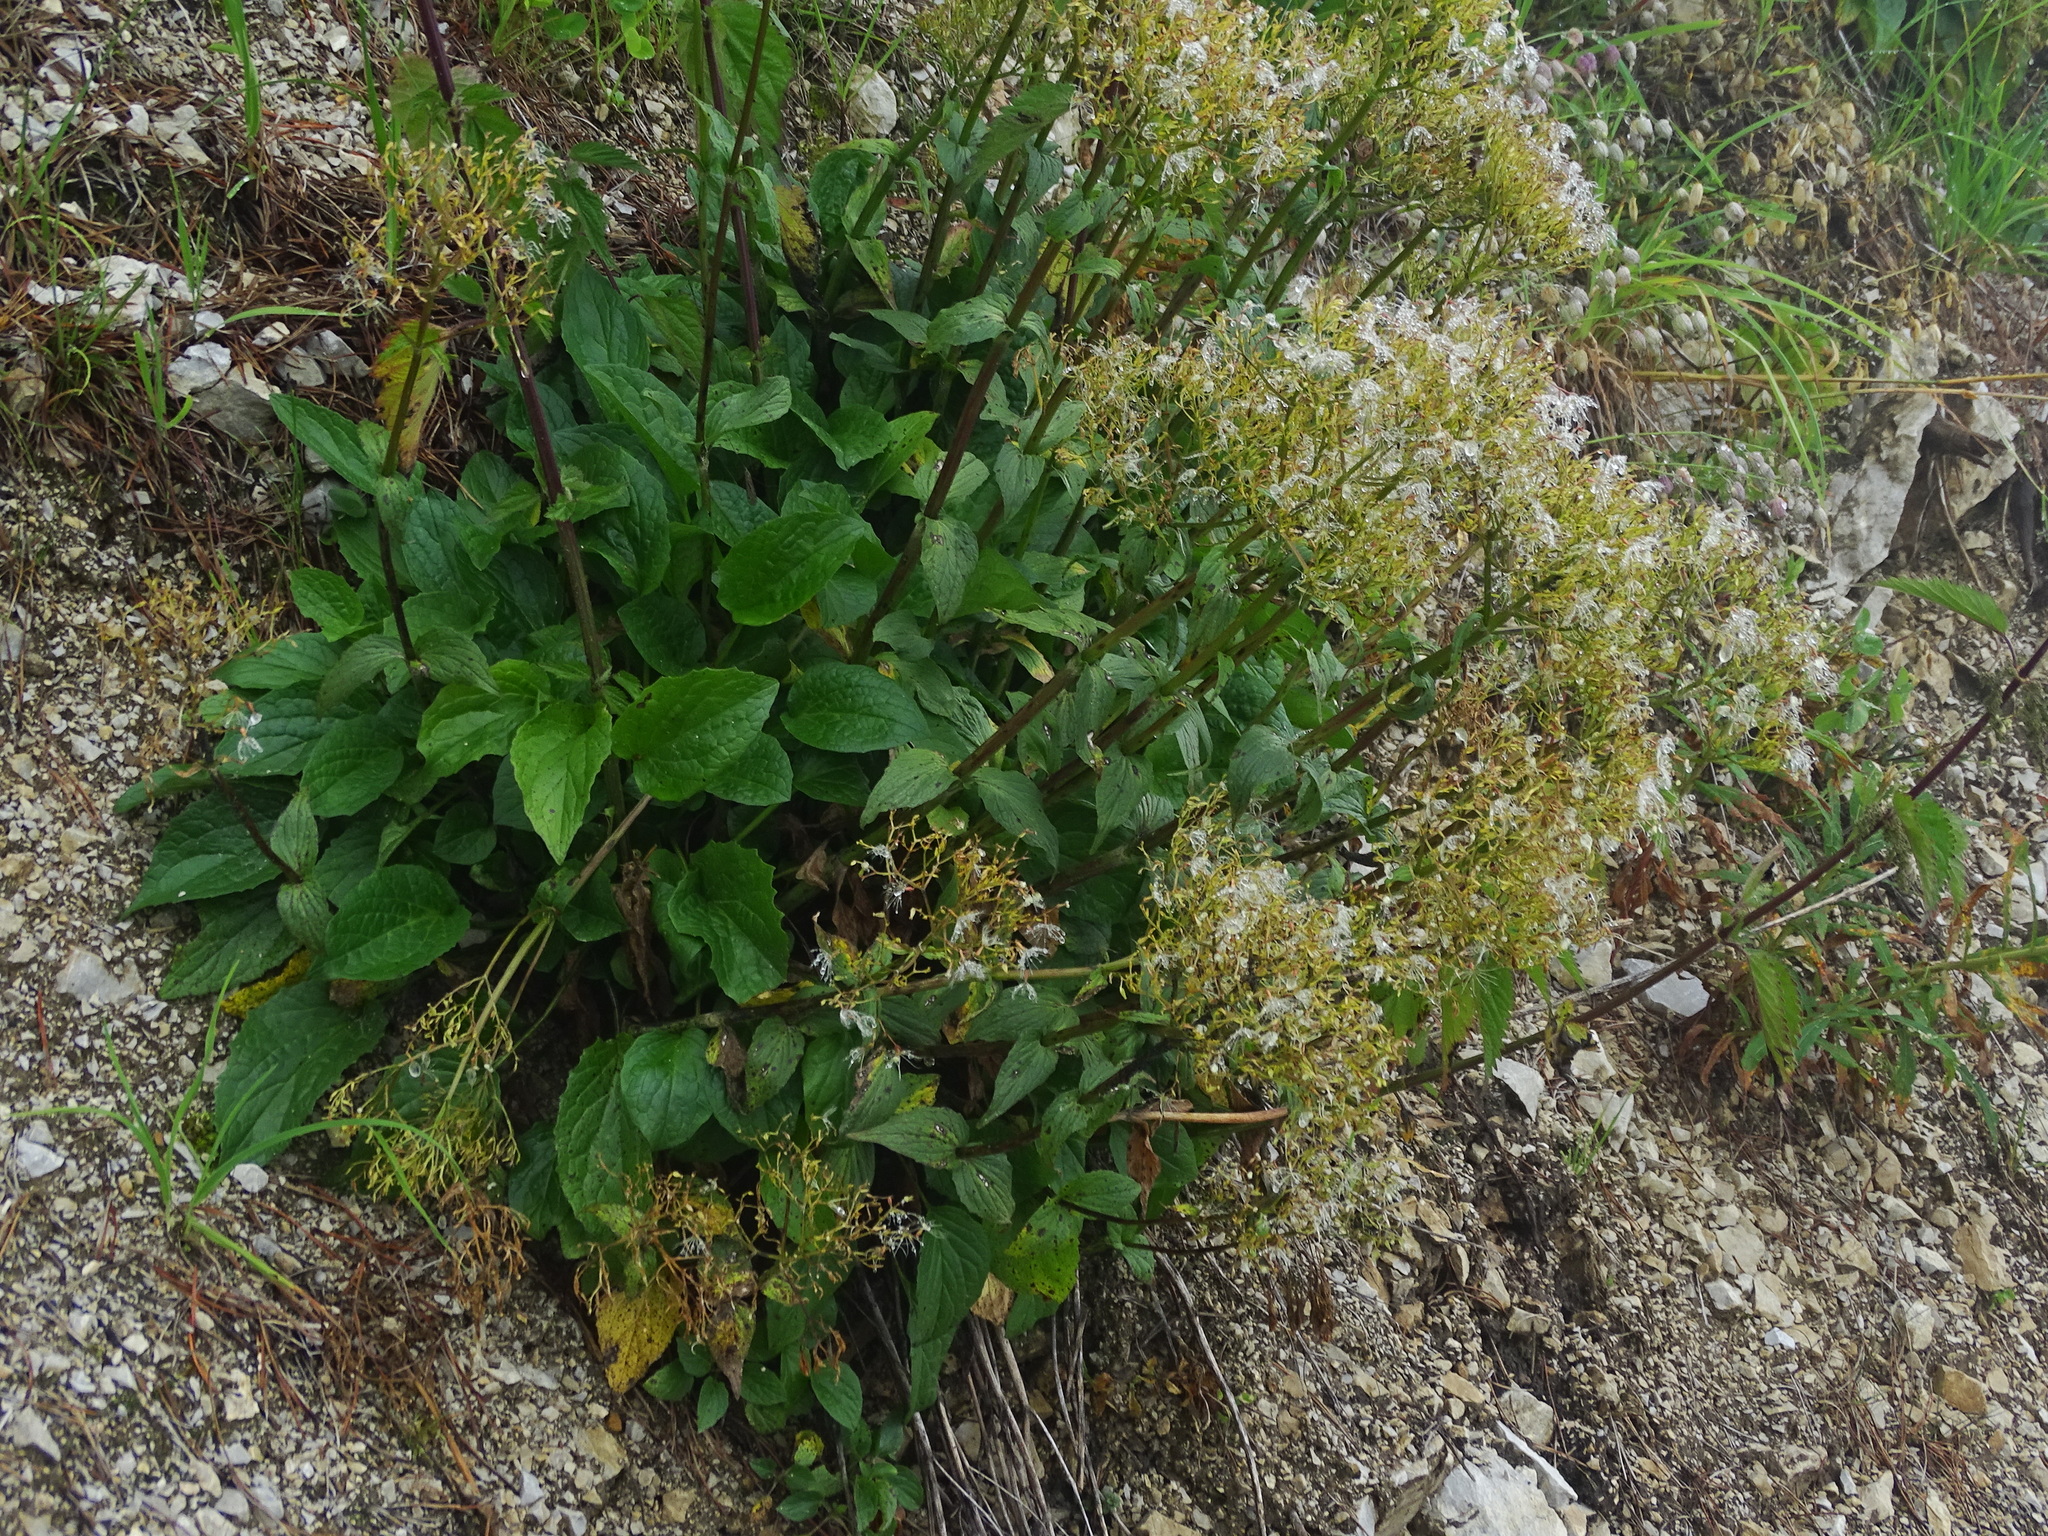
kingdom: Plantae
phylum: Tracheophyta
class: Magnoliopsida
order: Dipsacales
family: Caprifoliaceae
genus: Valeriana
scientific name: Valeriana montana
